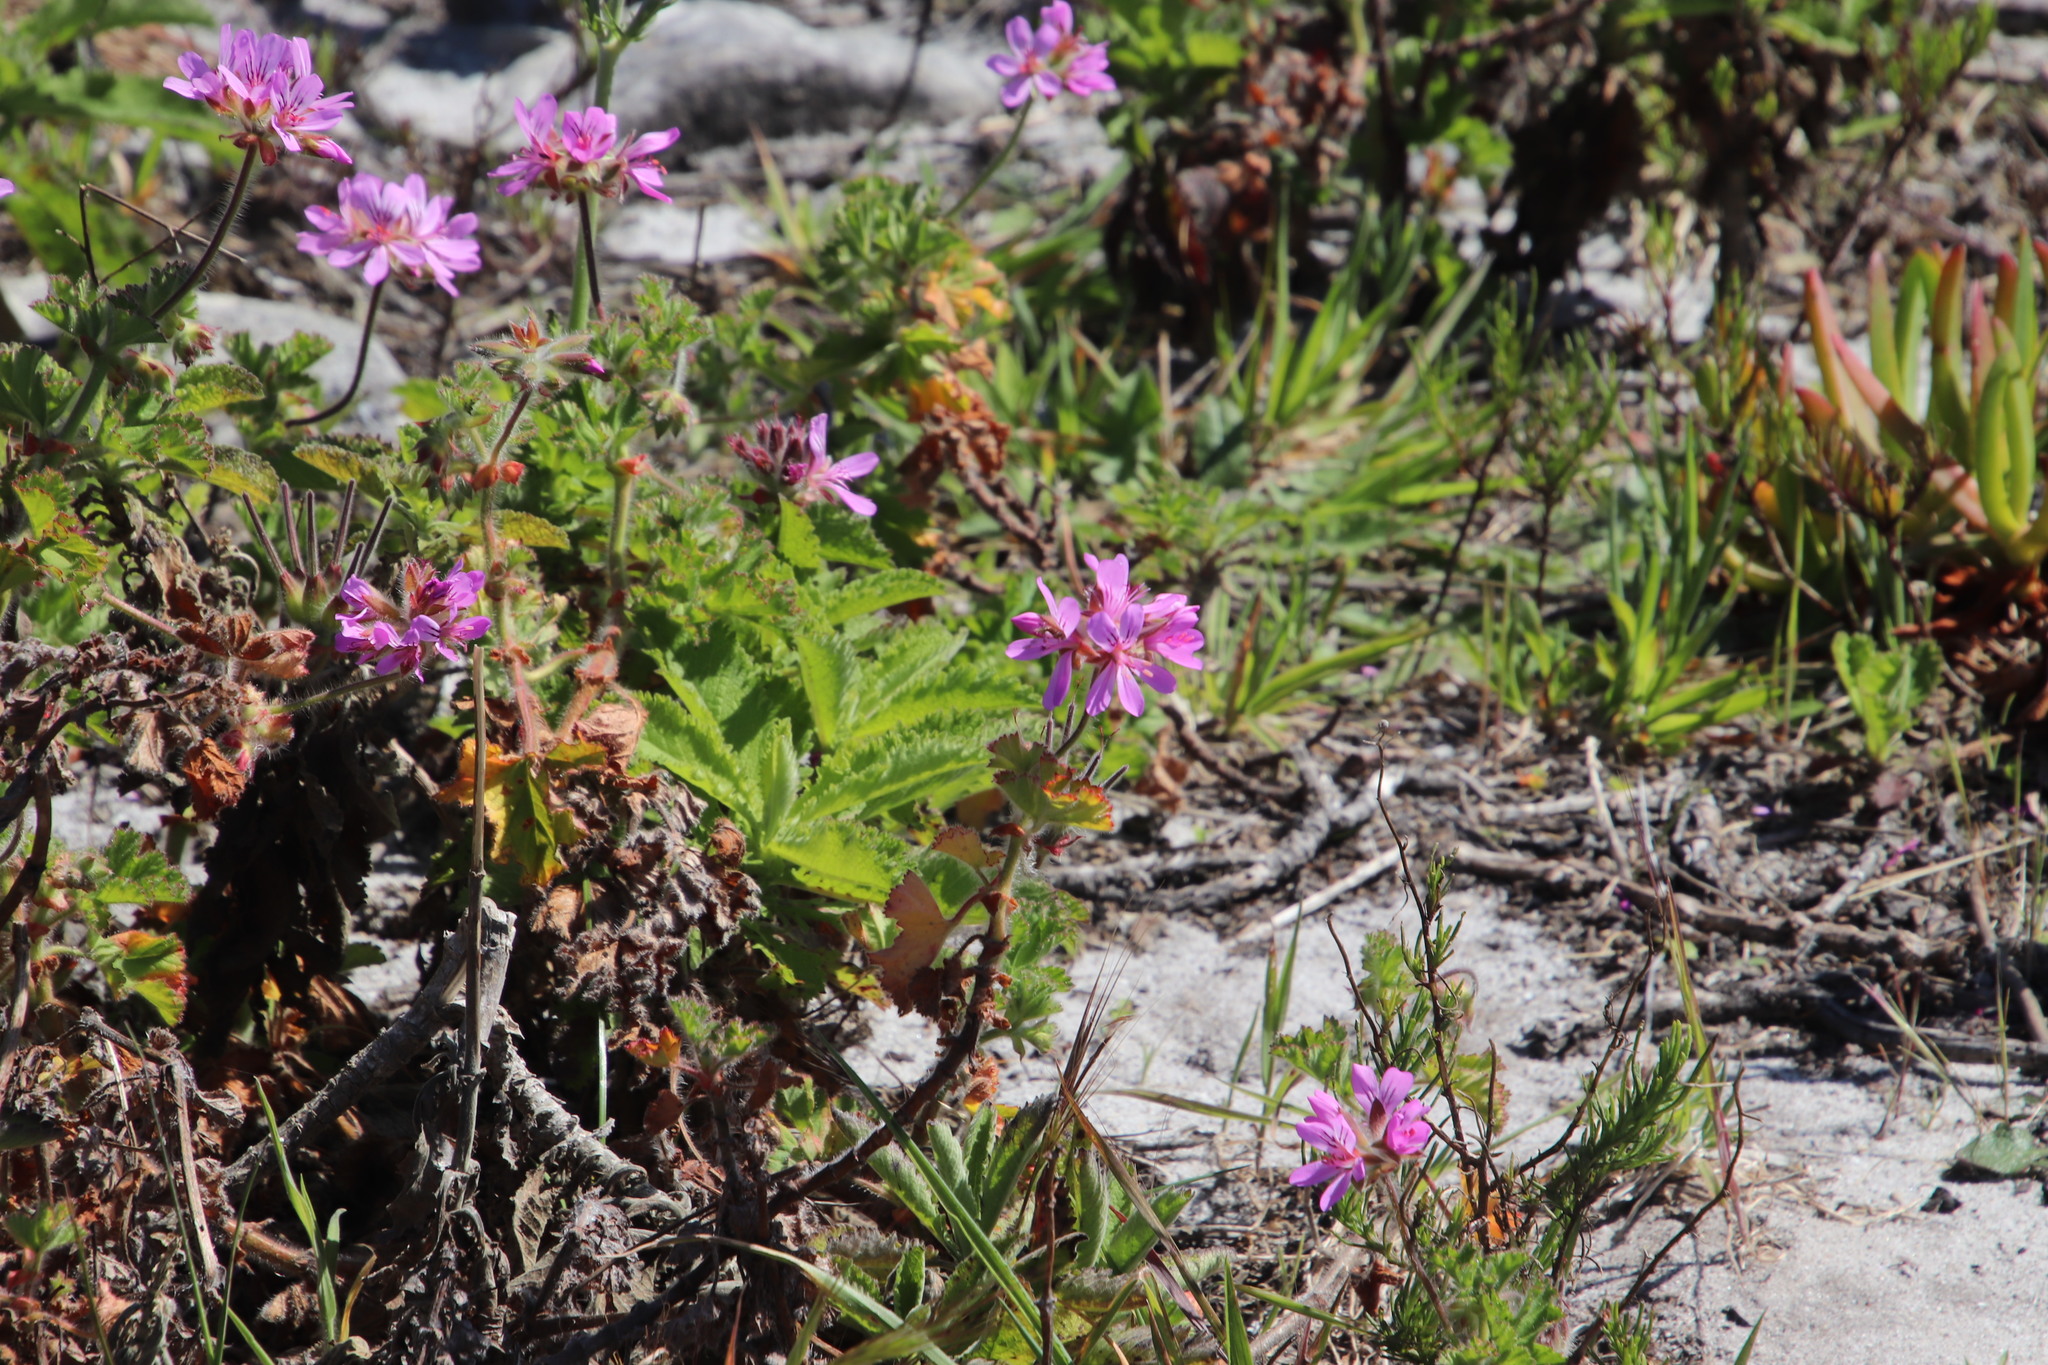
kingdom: Plantae
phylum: Tracheophyta
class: Magnoliopsida
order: Geraniales
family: Geraniaceae
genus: Pelargonium
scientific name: Pelargonium capitatum
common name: Rose scented geranium
